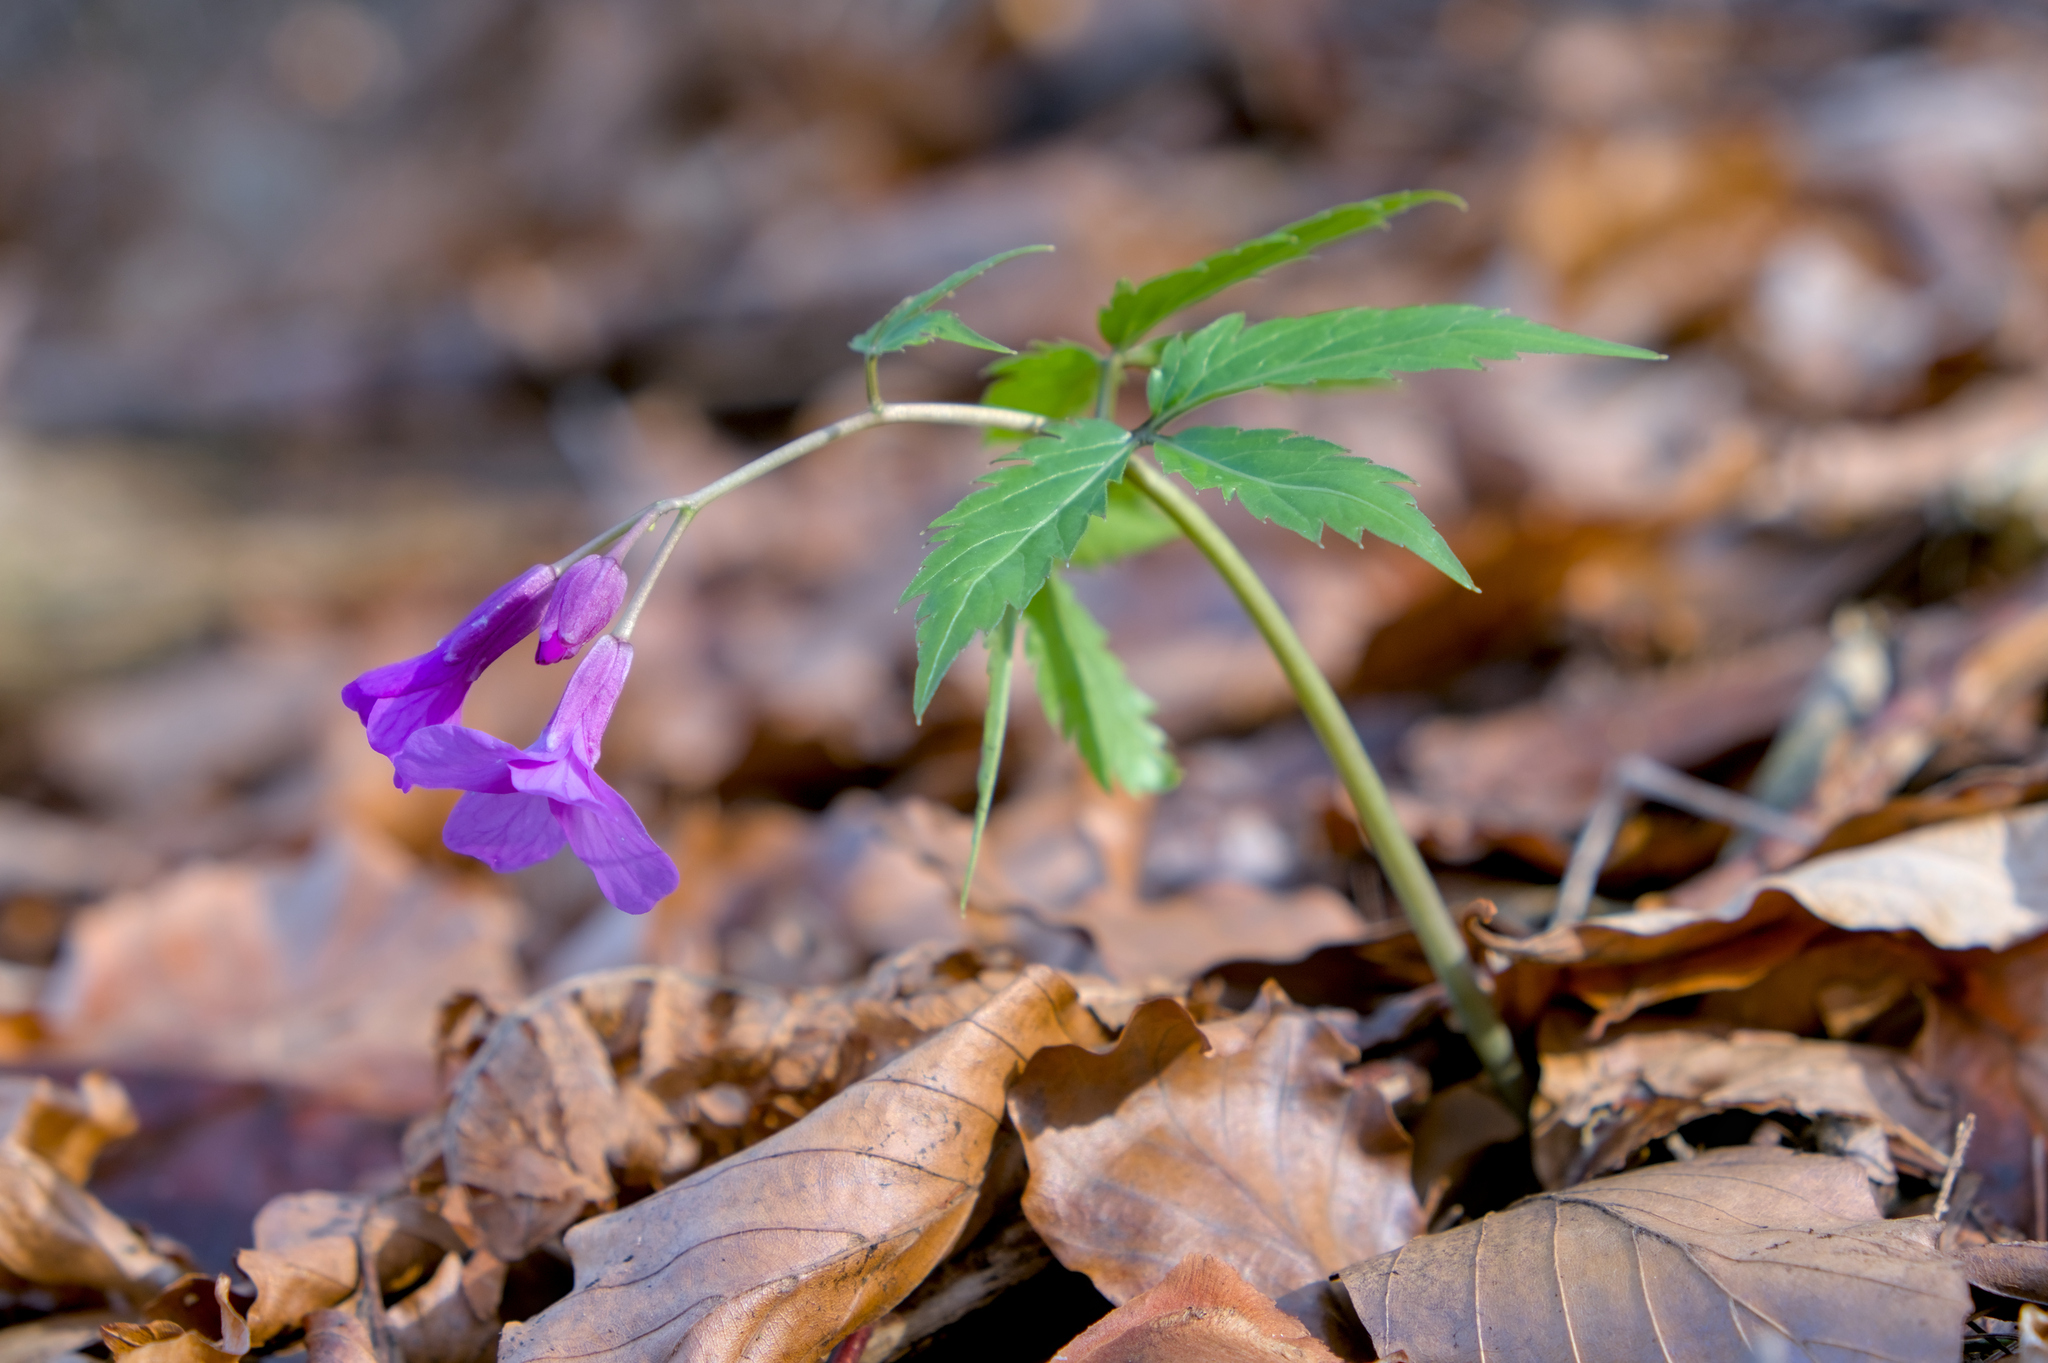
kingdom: Plantae
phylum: Tracheophyta
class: Magnoliopsida
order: Brassicales
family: Brassicaceae
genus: Cardamine
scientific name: Cardamine glanduligera
